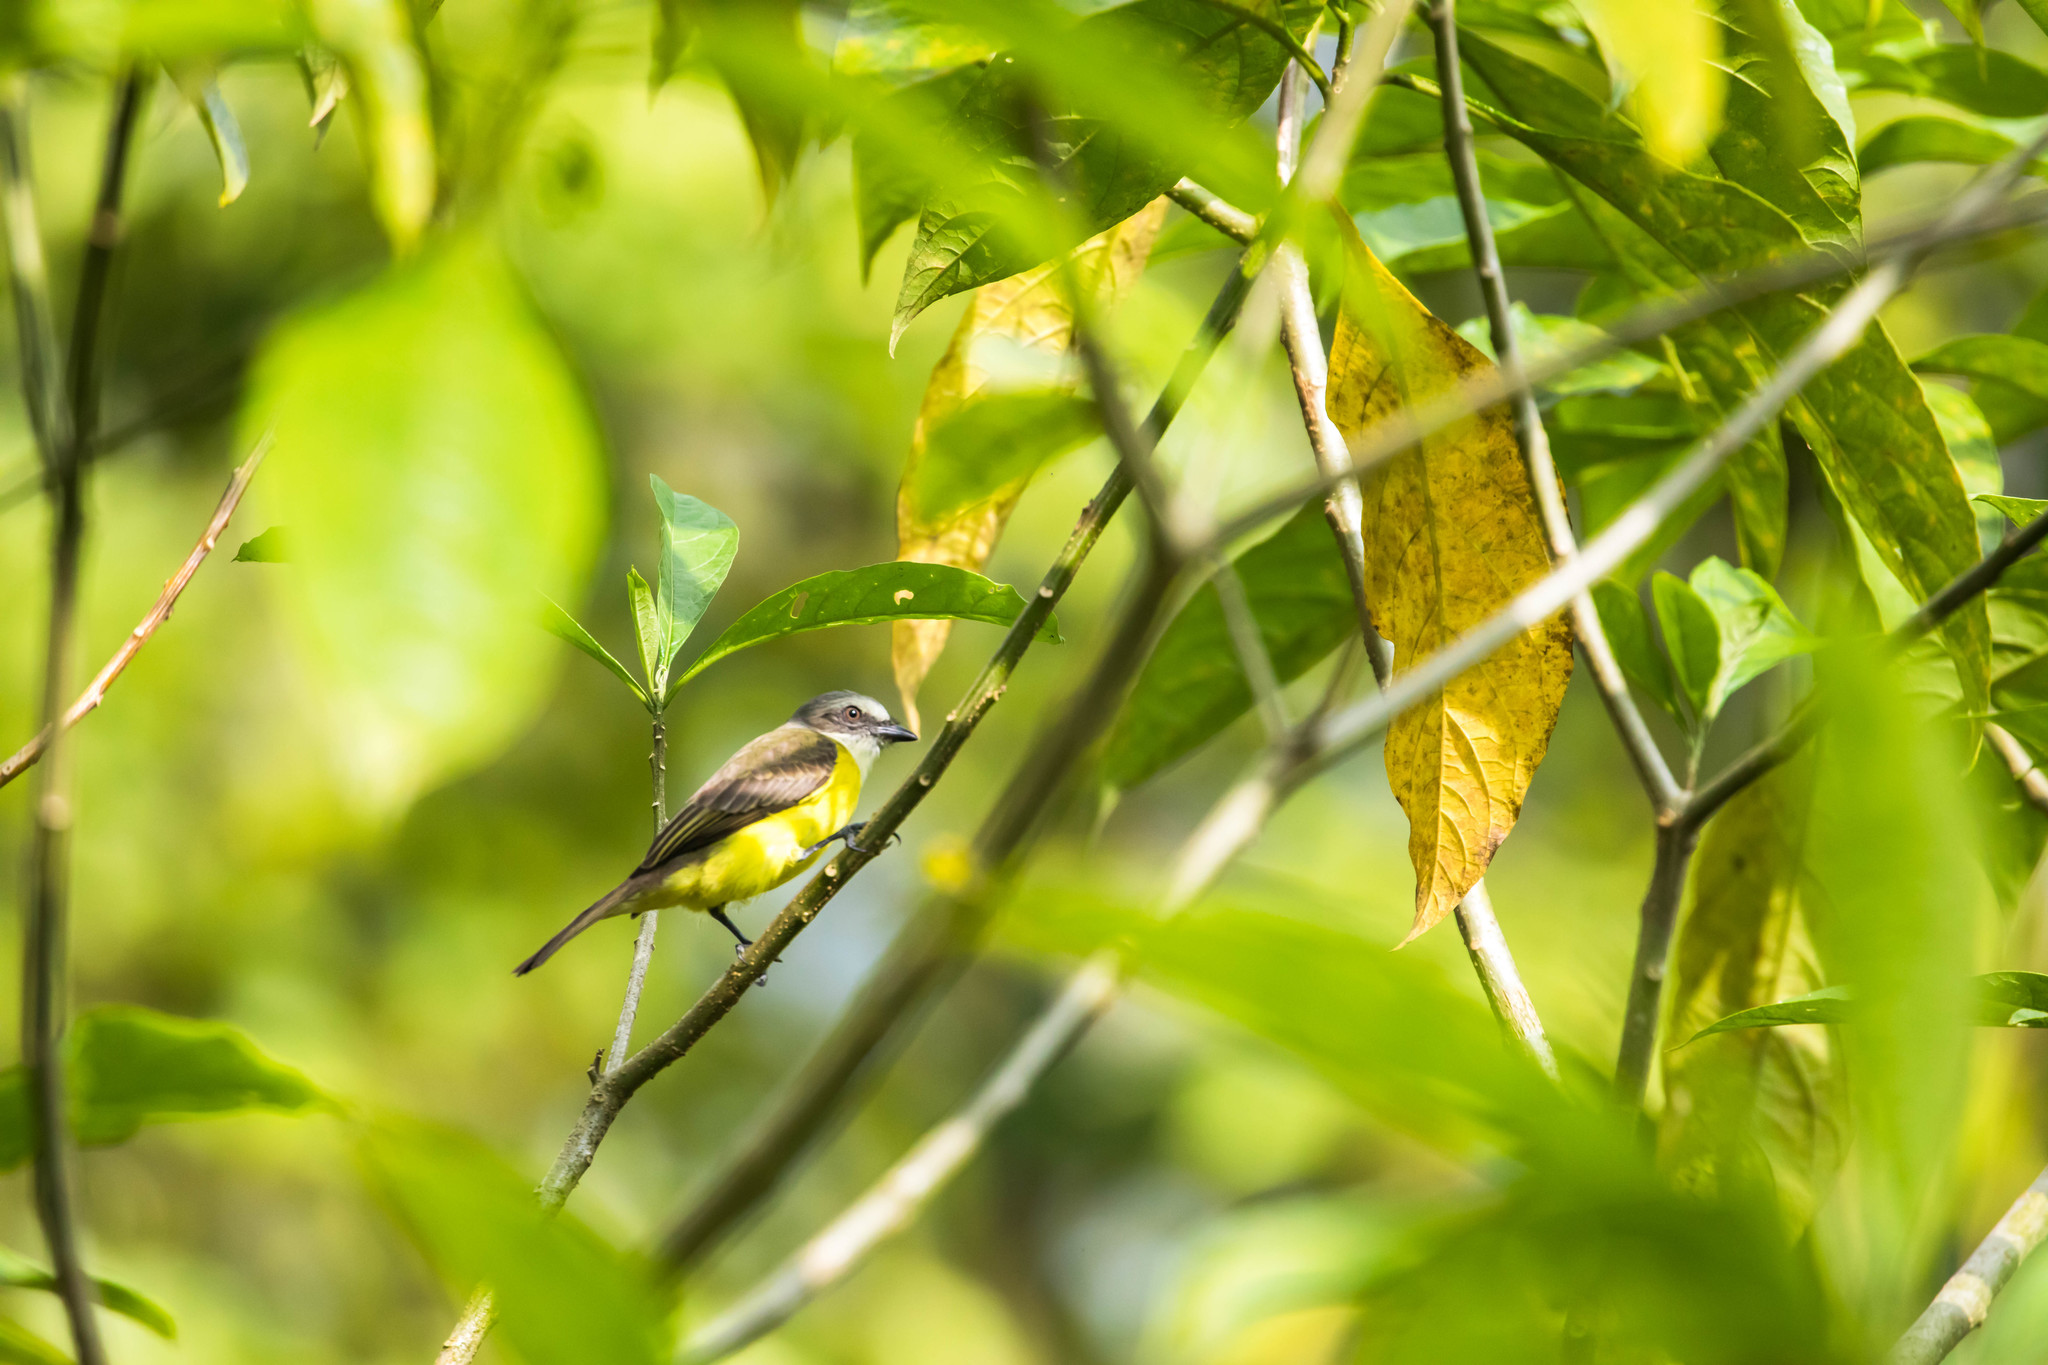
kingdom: Animalia
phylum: Chordata
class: Aves
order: Passeriformes
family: Tyrannidae
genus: Myiozetetes
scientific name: Myiozetetes granadensis
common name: Gray-capped flycatcher
